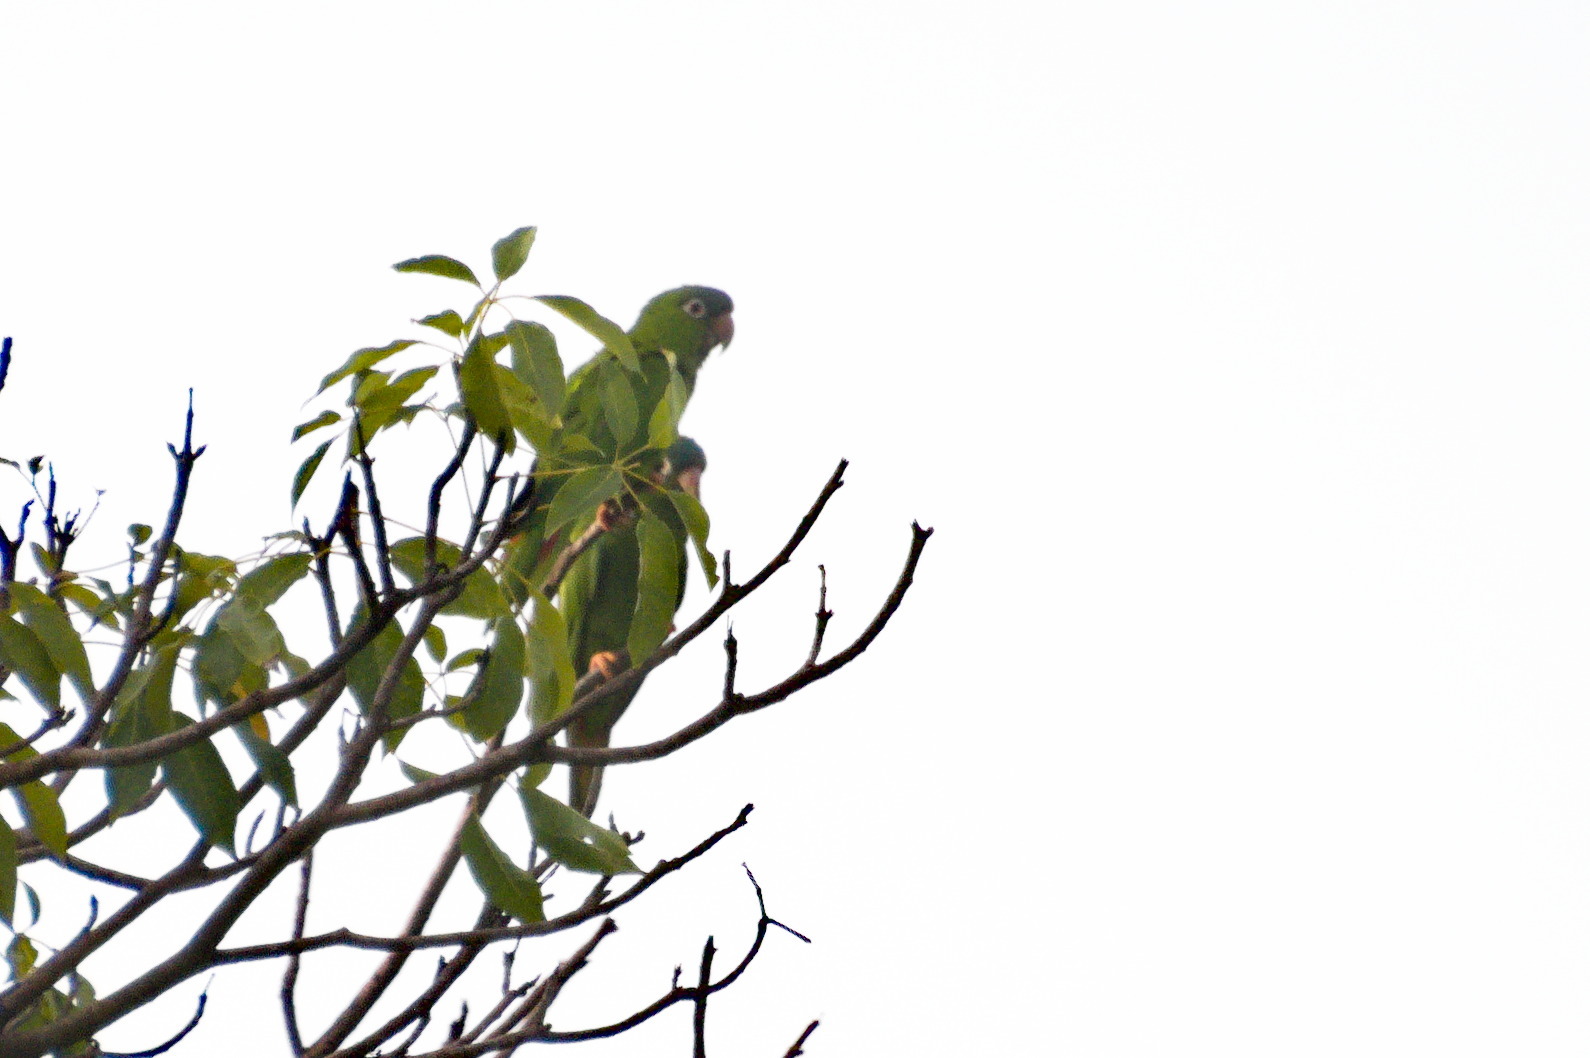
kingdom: Animalia
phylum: Chordata
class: Aves
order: Psittaciformes
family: Psittacidae
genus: Aratinga
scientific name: Aratinga acuticaudata
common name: Blue-crowned parakeet
